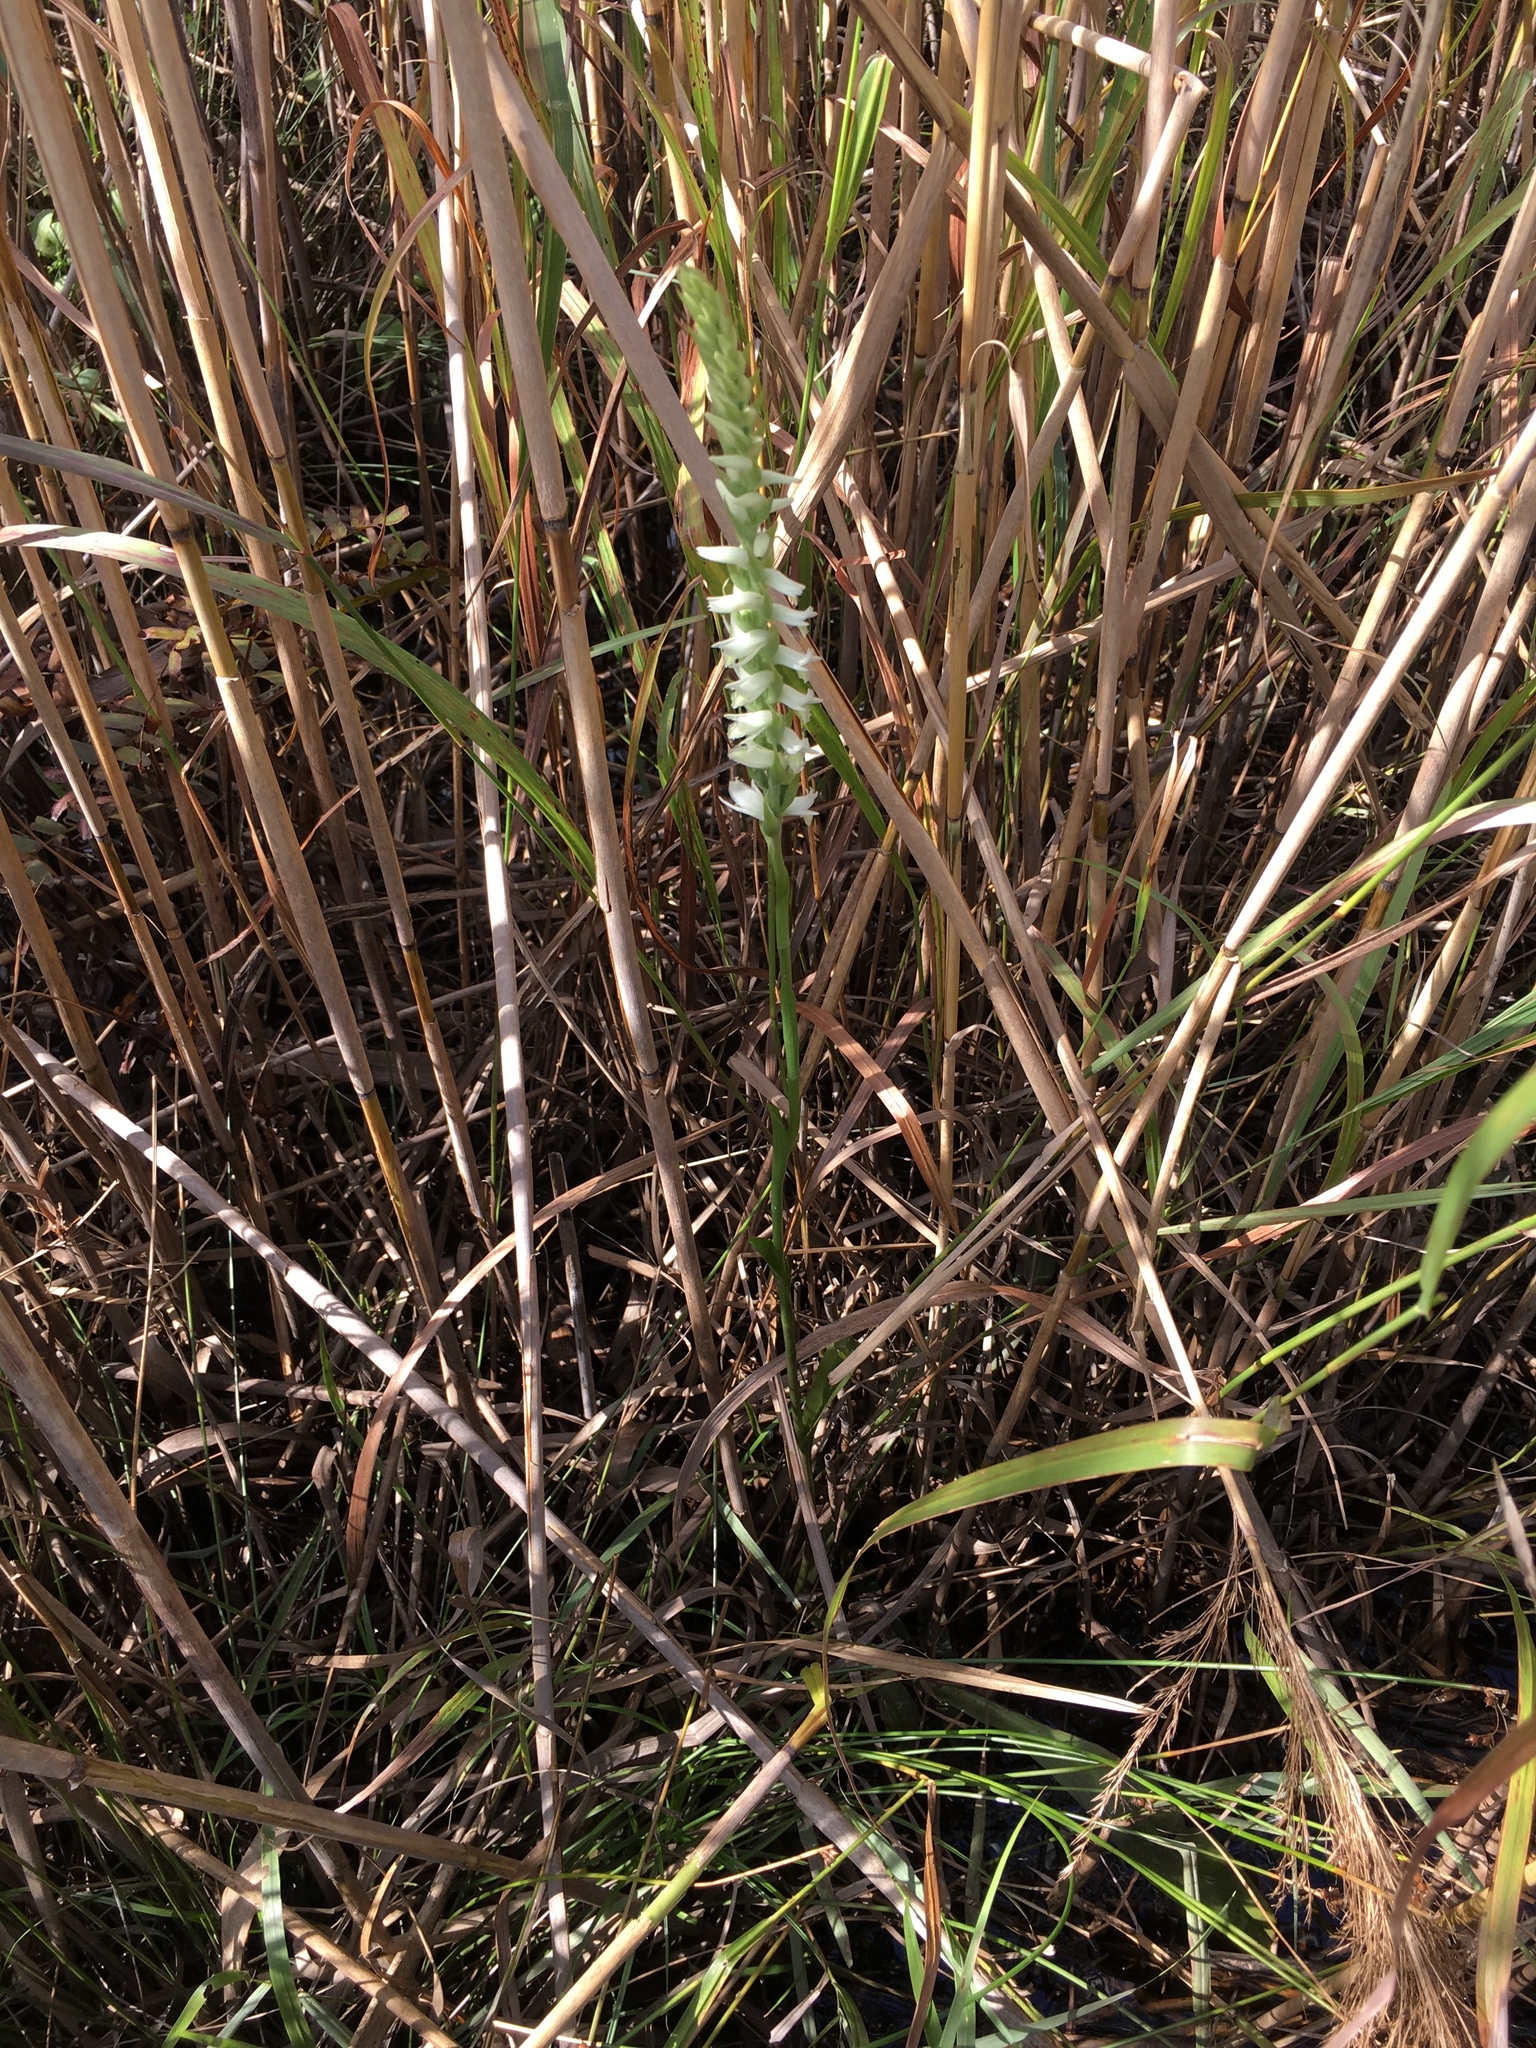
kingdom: Plantae
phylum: Tracheophyta
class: Liliopsida
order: Asparagales
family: Orchidaceae
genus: Spiranthes
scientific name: Spiranthes odorata
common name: Marsh ladies'-tresses
